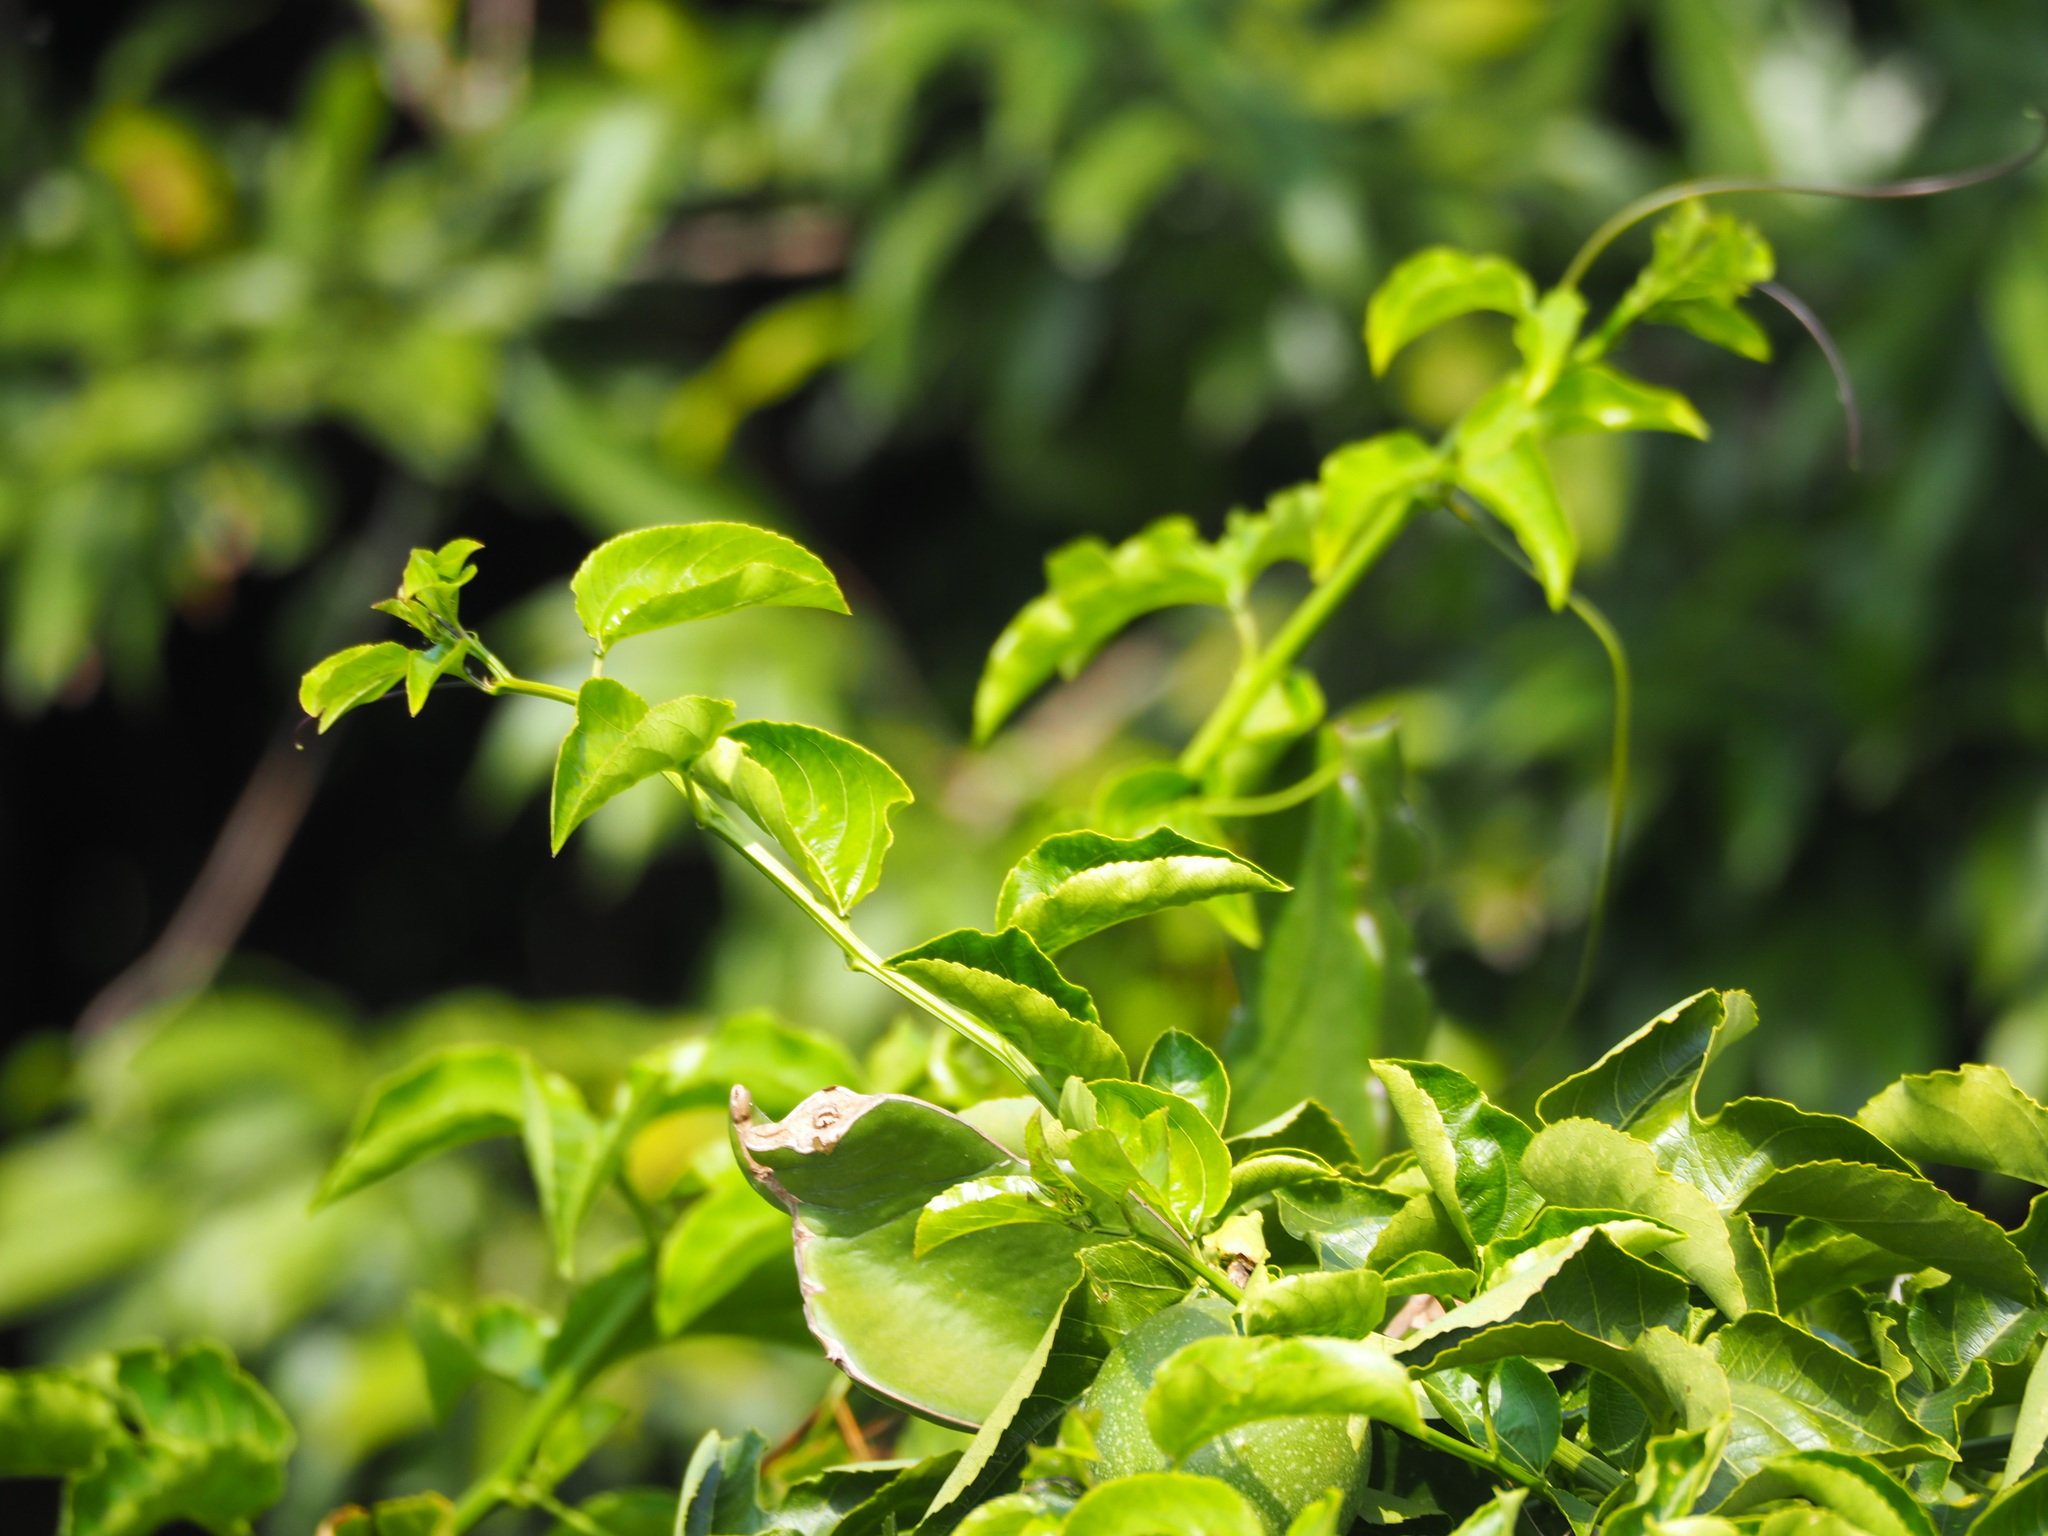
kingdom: Plantae
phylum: Tracheophyta
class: Magnoliopsida
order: Malpighiales
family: Passifloraceae
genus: Passiflora
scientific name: Passiflora edulis
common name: Purple granadilla
